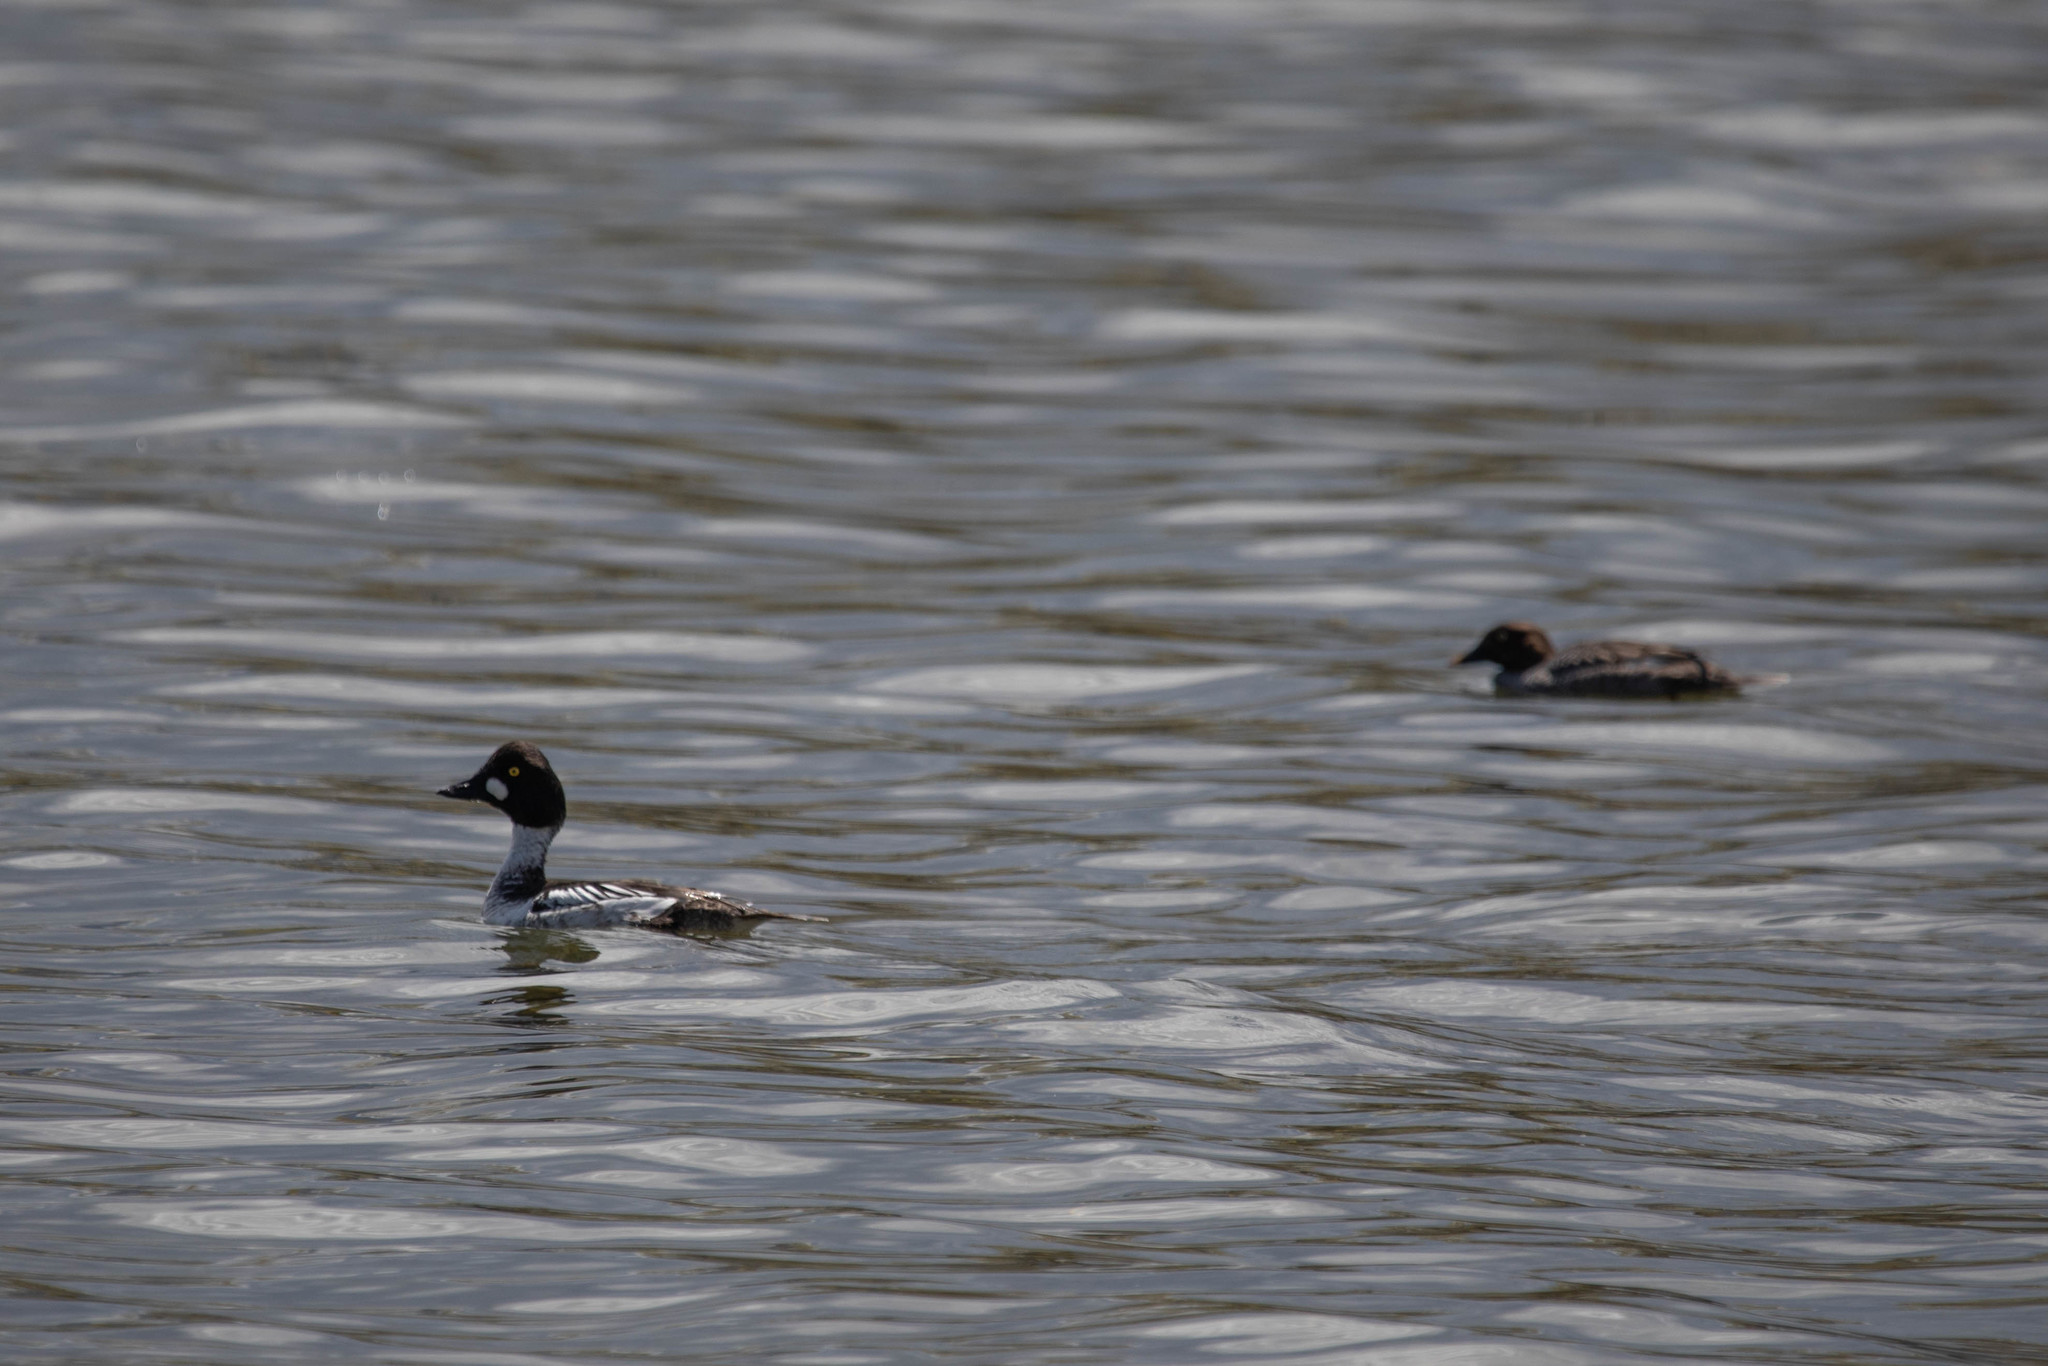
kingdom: Animalia
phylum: Chordata
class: Aves
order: Anseriformes
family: Anatidae
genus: Bucephala
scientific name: Bucephala clangula
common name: Common goldeneye
